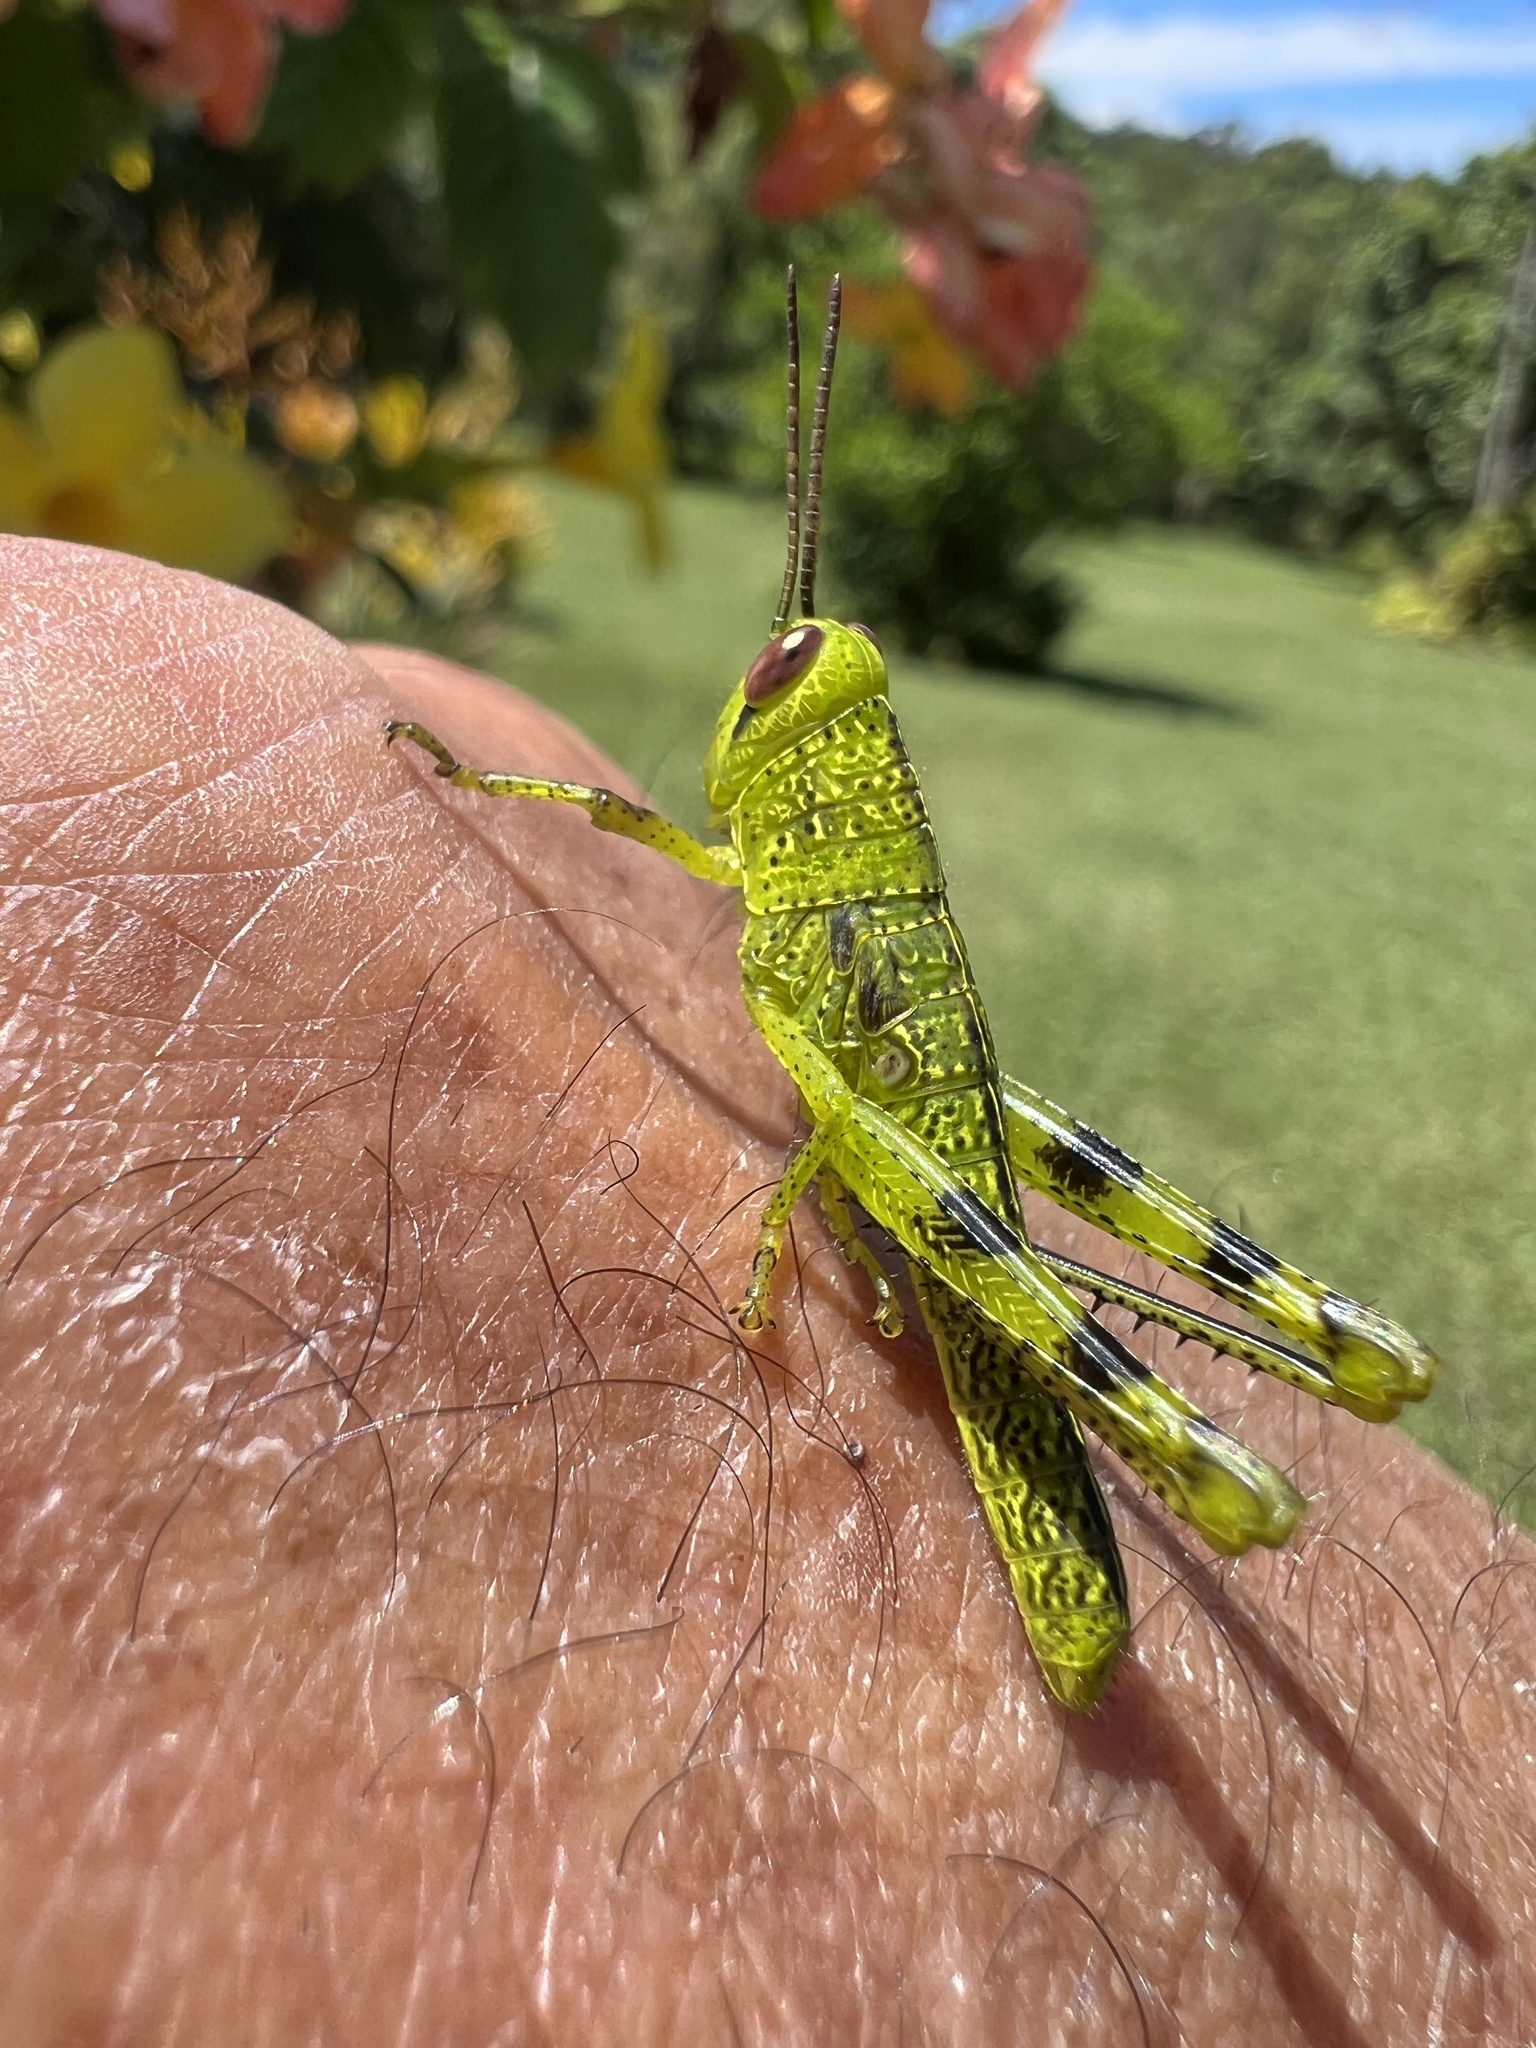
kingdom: Animalia
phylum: Arthropoda
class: Insecta
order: Orthoptera
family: Acrididae
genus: Valanga
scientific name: Valanga irregularis
